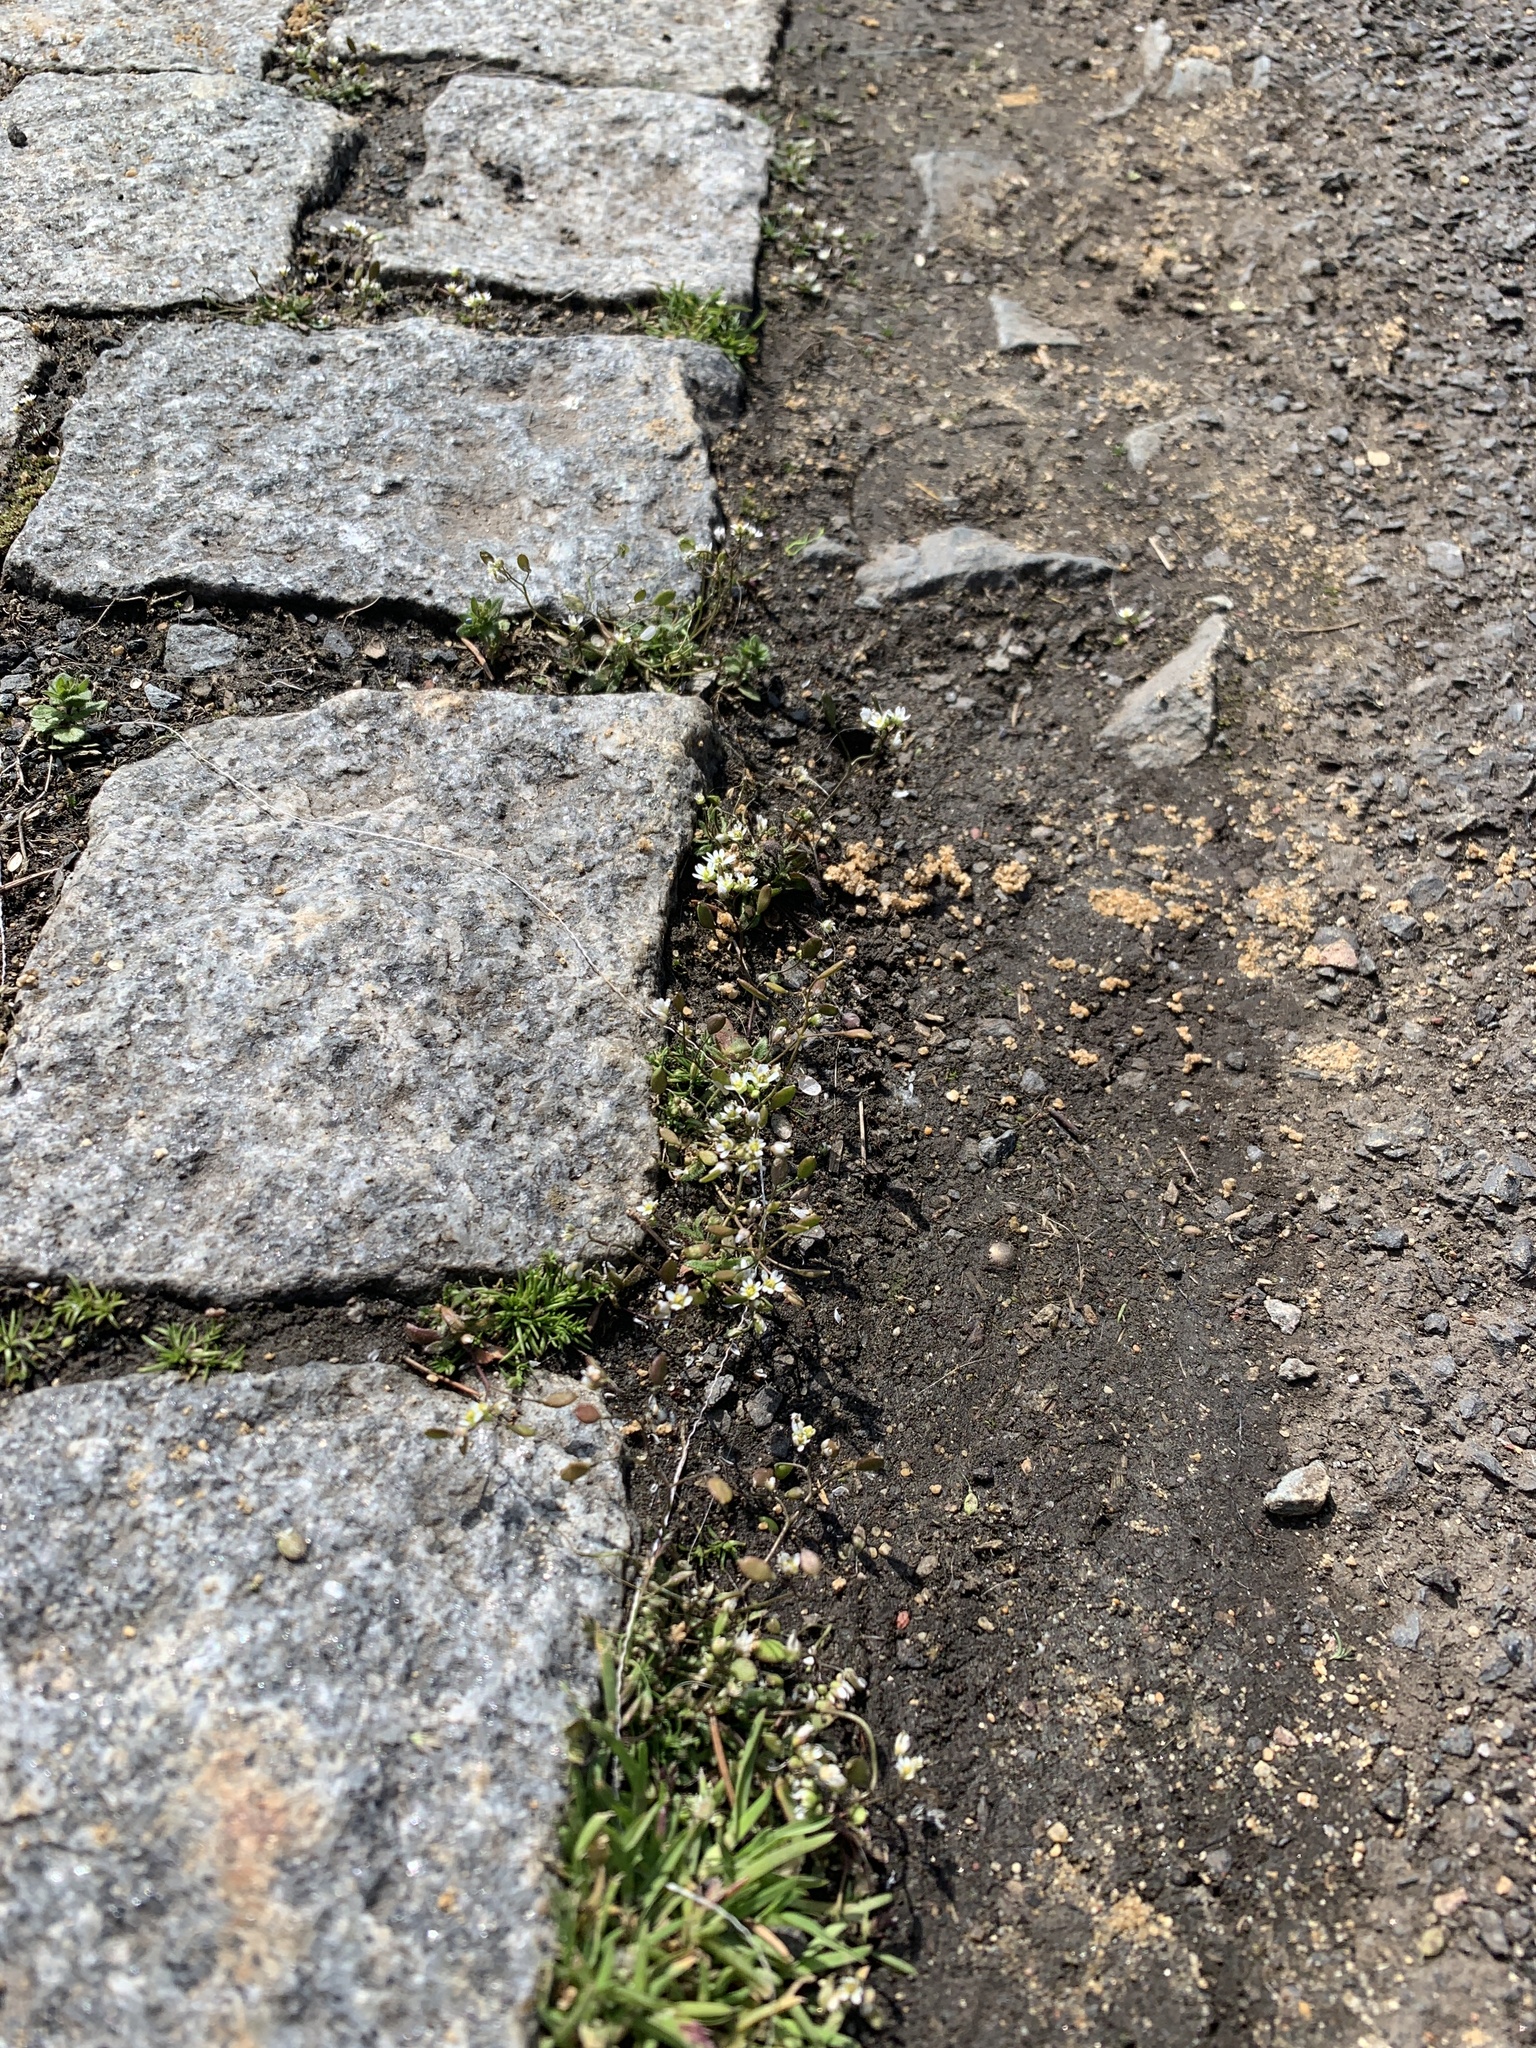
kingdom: Plantae
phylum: Tracheophyta
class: Magnoliopsida
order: Brassicales
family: Brassicaceae
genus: Draba
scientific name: Draba verna
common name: Spring draba
